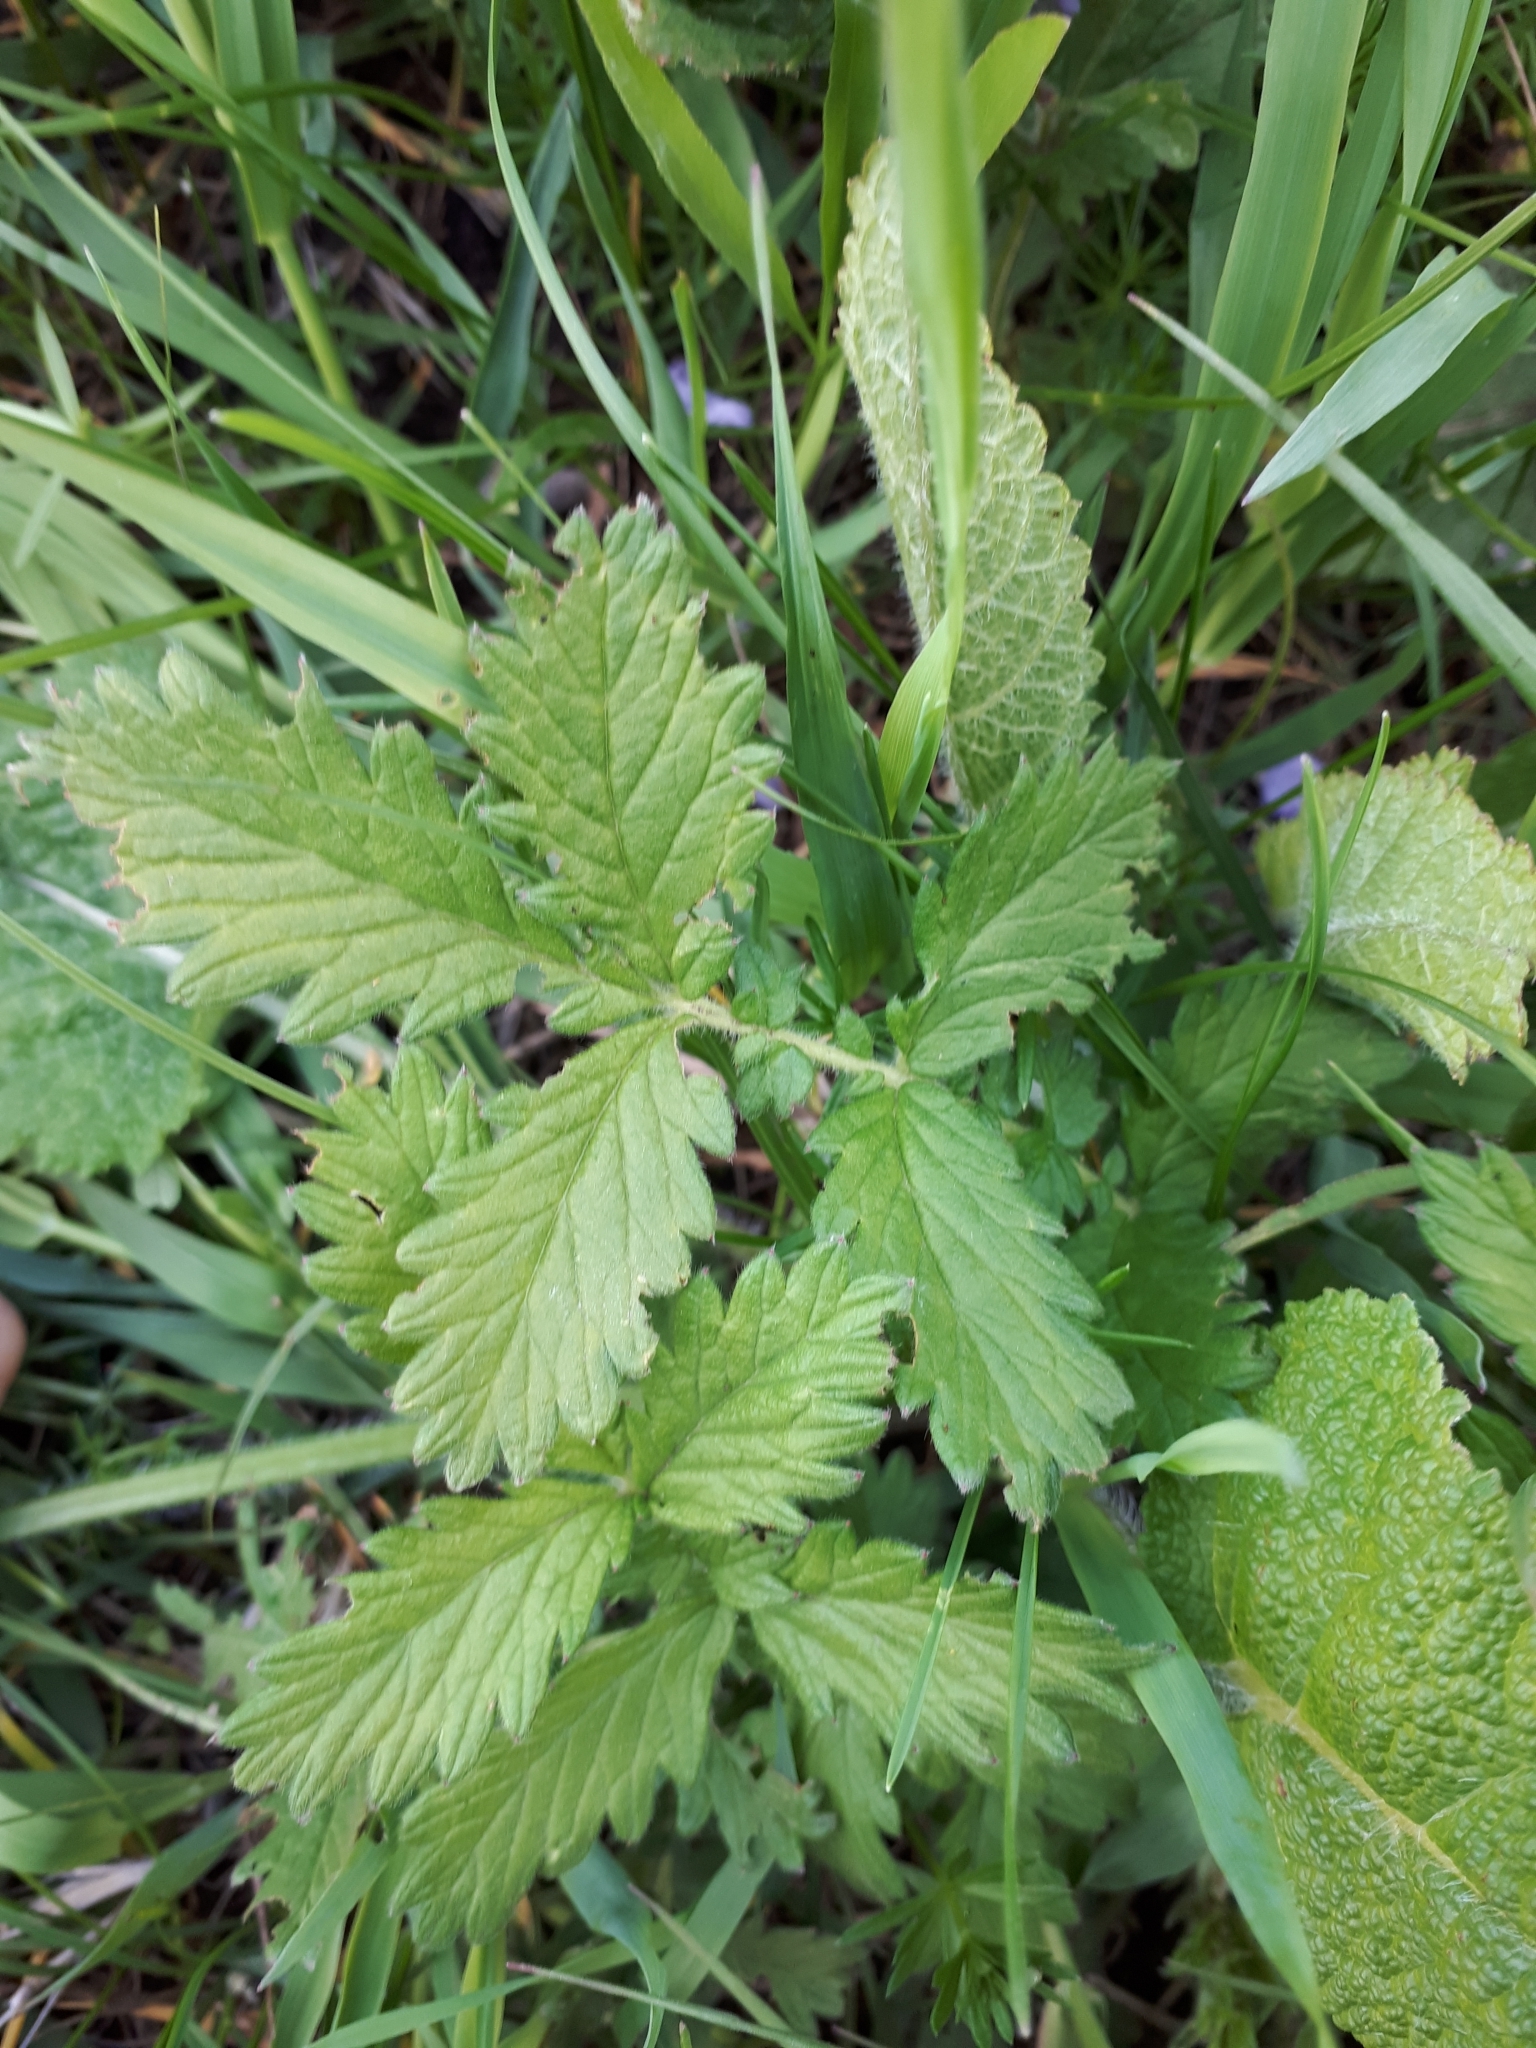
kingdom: Plantae
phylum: Tracheophyta
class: Magnoliopsida
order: Rosales
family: Rosaceae
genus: Agrimonia
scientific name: Agrimonia eupatoria
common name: Agrimony
